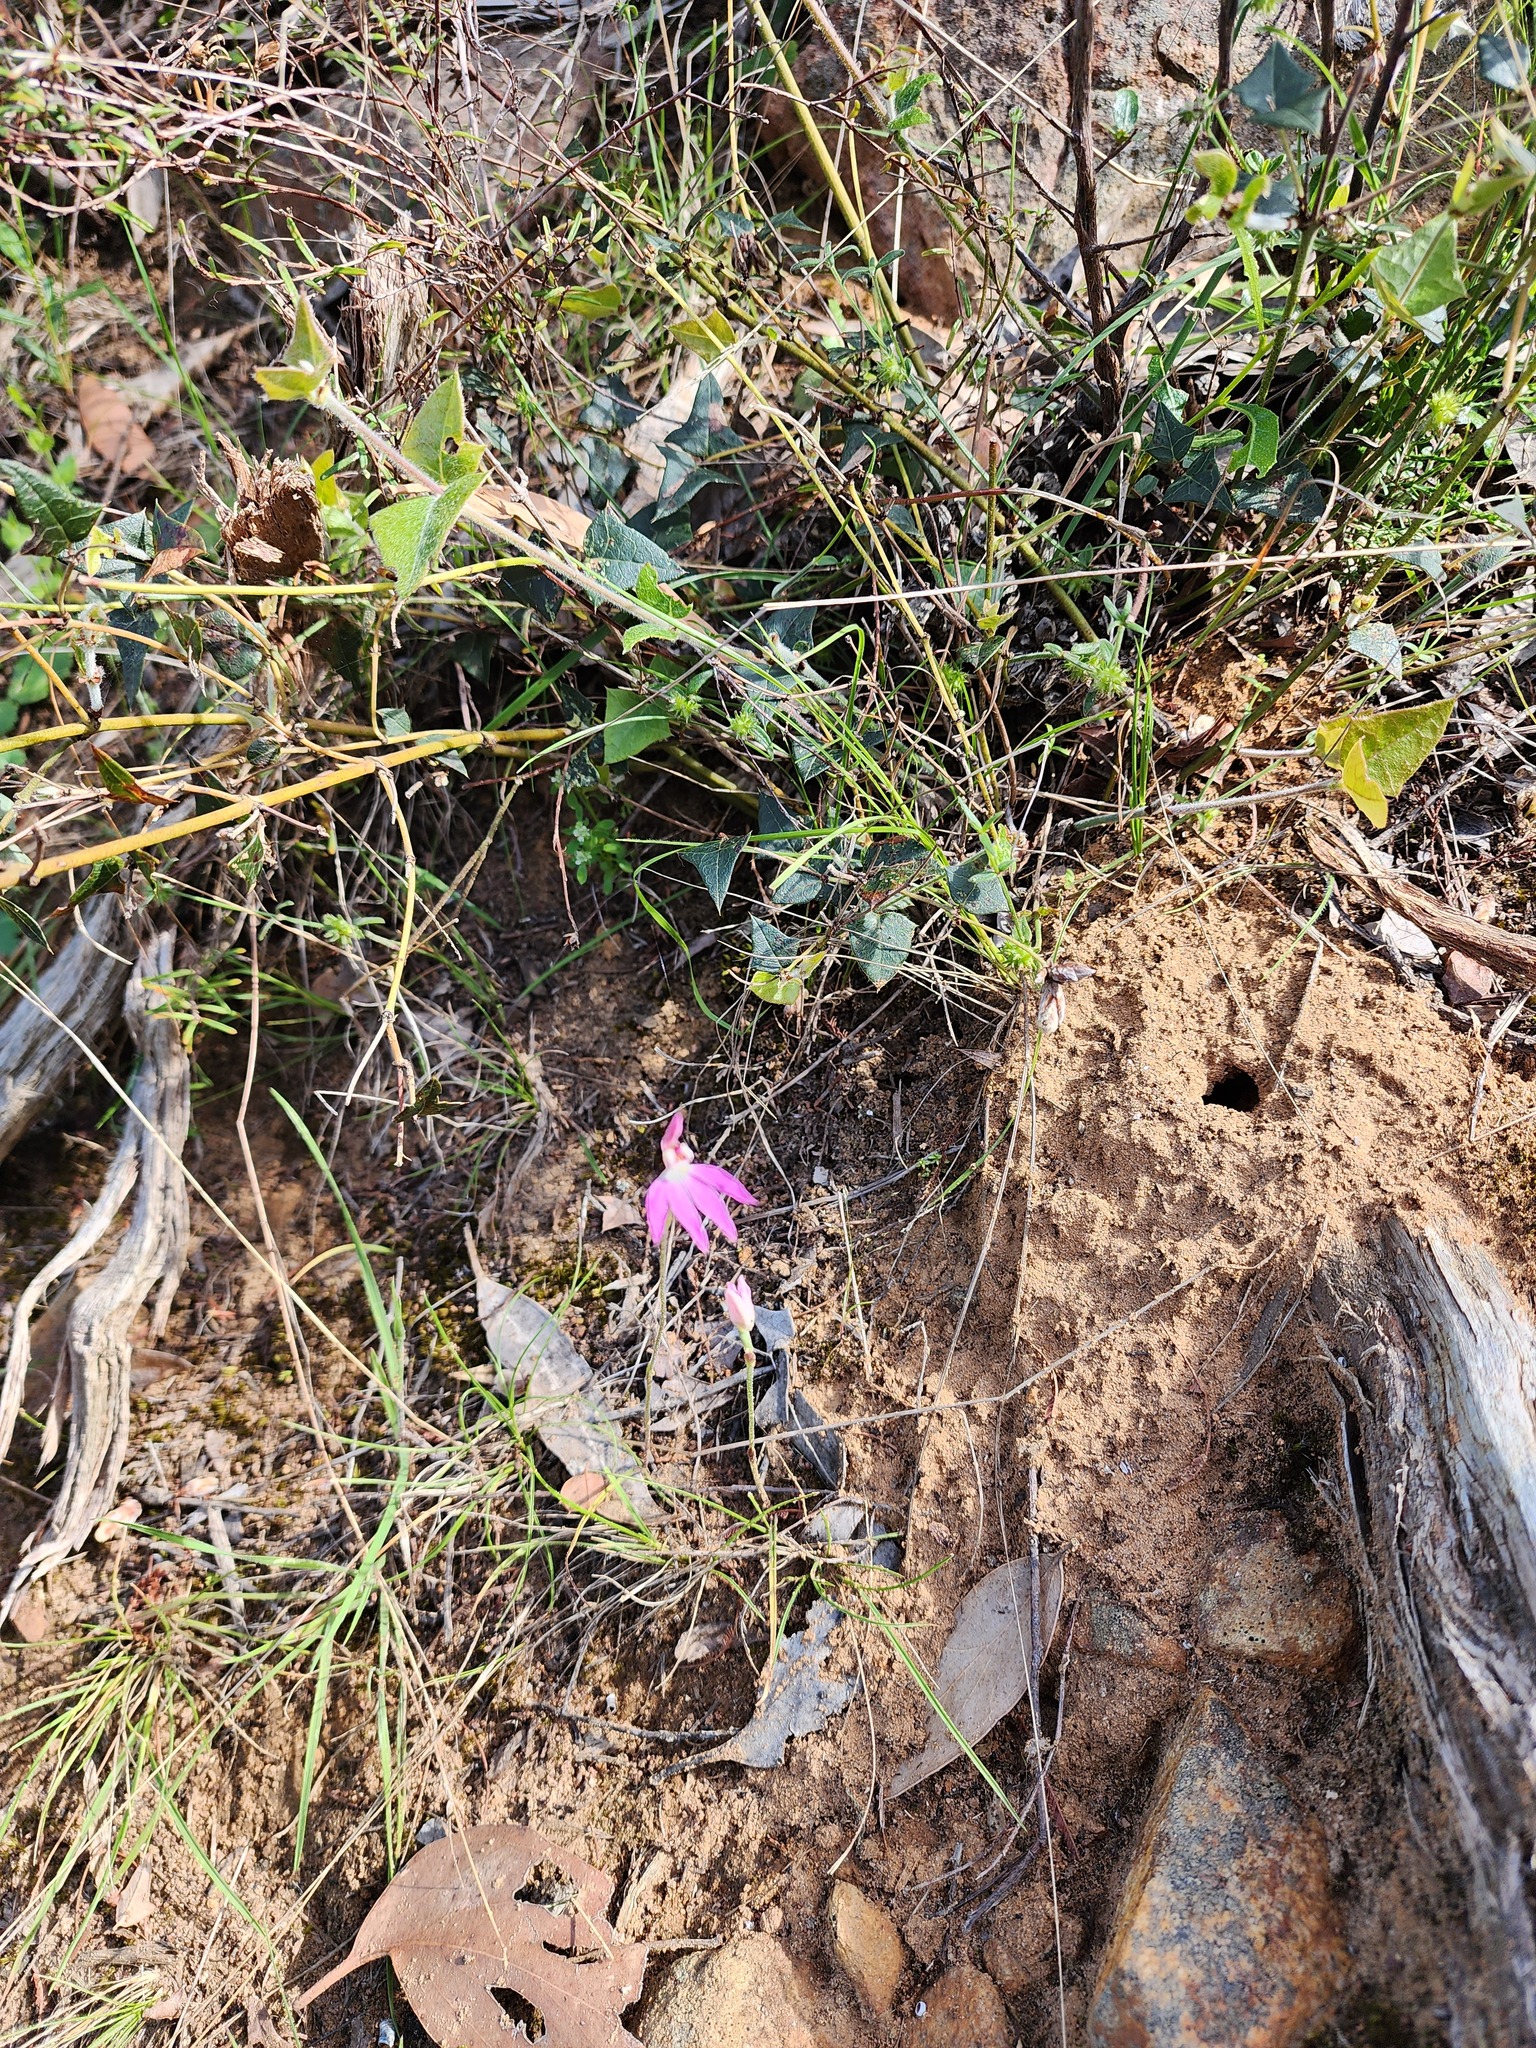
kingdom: Plantae
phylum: Tracheophyta
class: Liliopsida
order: Asparagales
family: Orchidaceae
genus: Caladenia
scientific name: Caladenia carnea
